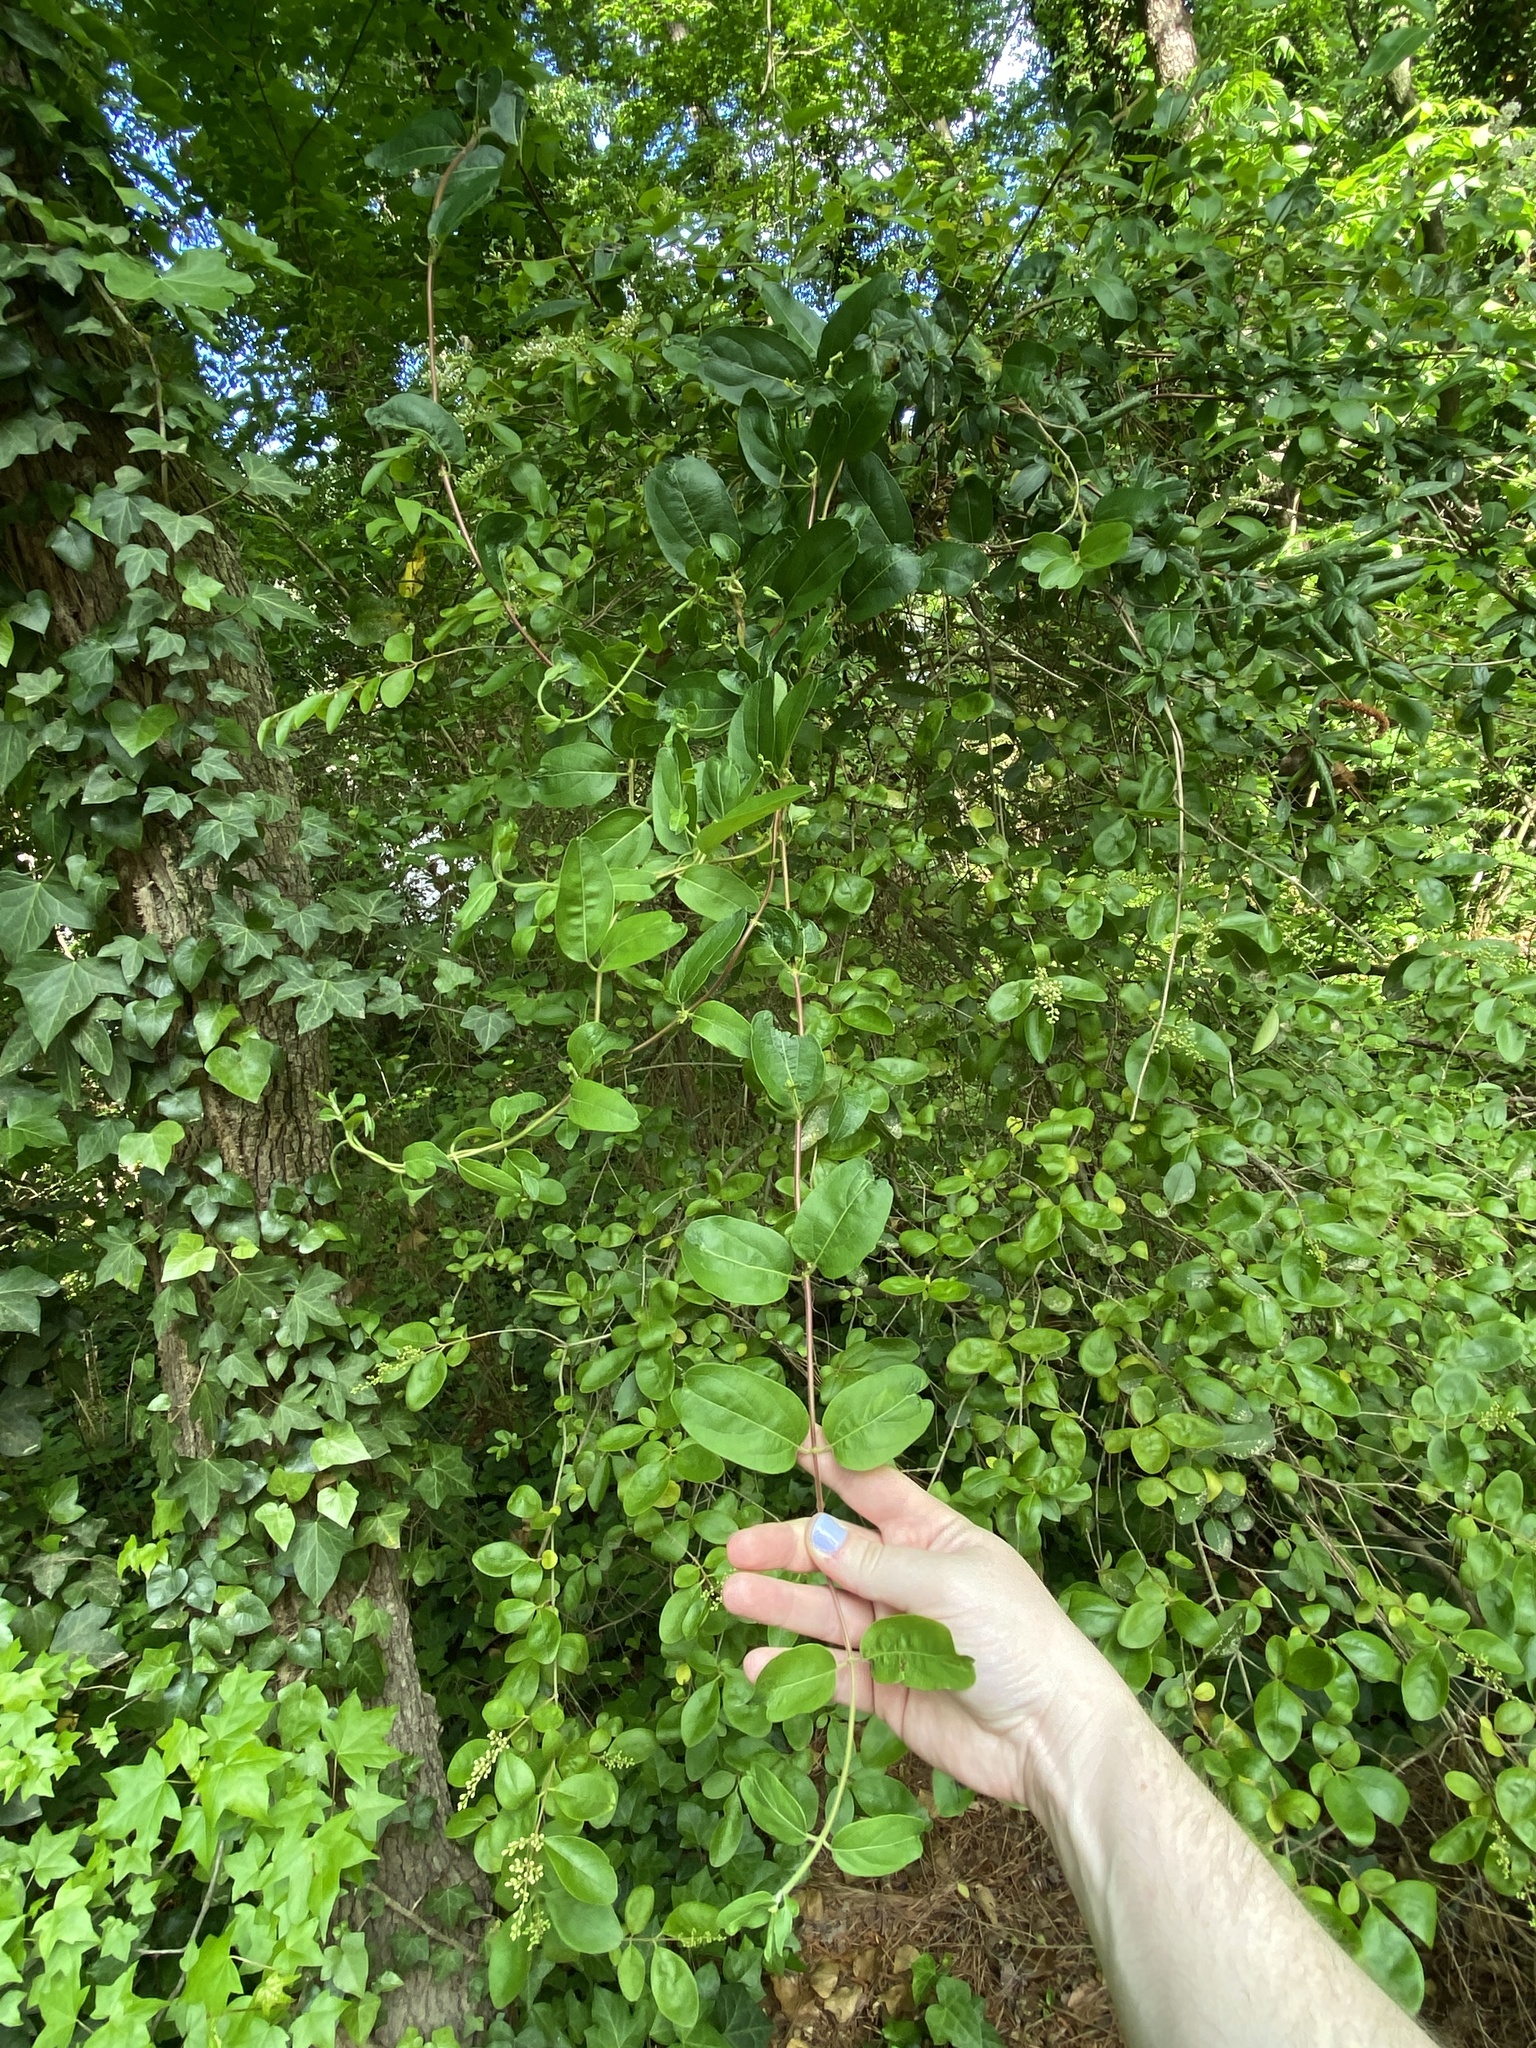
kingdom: Plantae
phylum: Tracheophyta
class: Magnoliopsida
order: Dipsacales
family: Caprifoliaceae
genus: Lonicera
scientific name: Lonicera japonica
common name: Japanese honeysuckle
